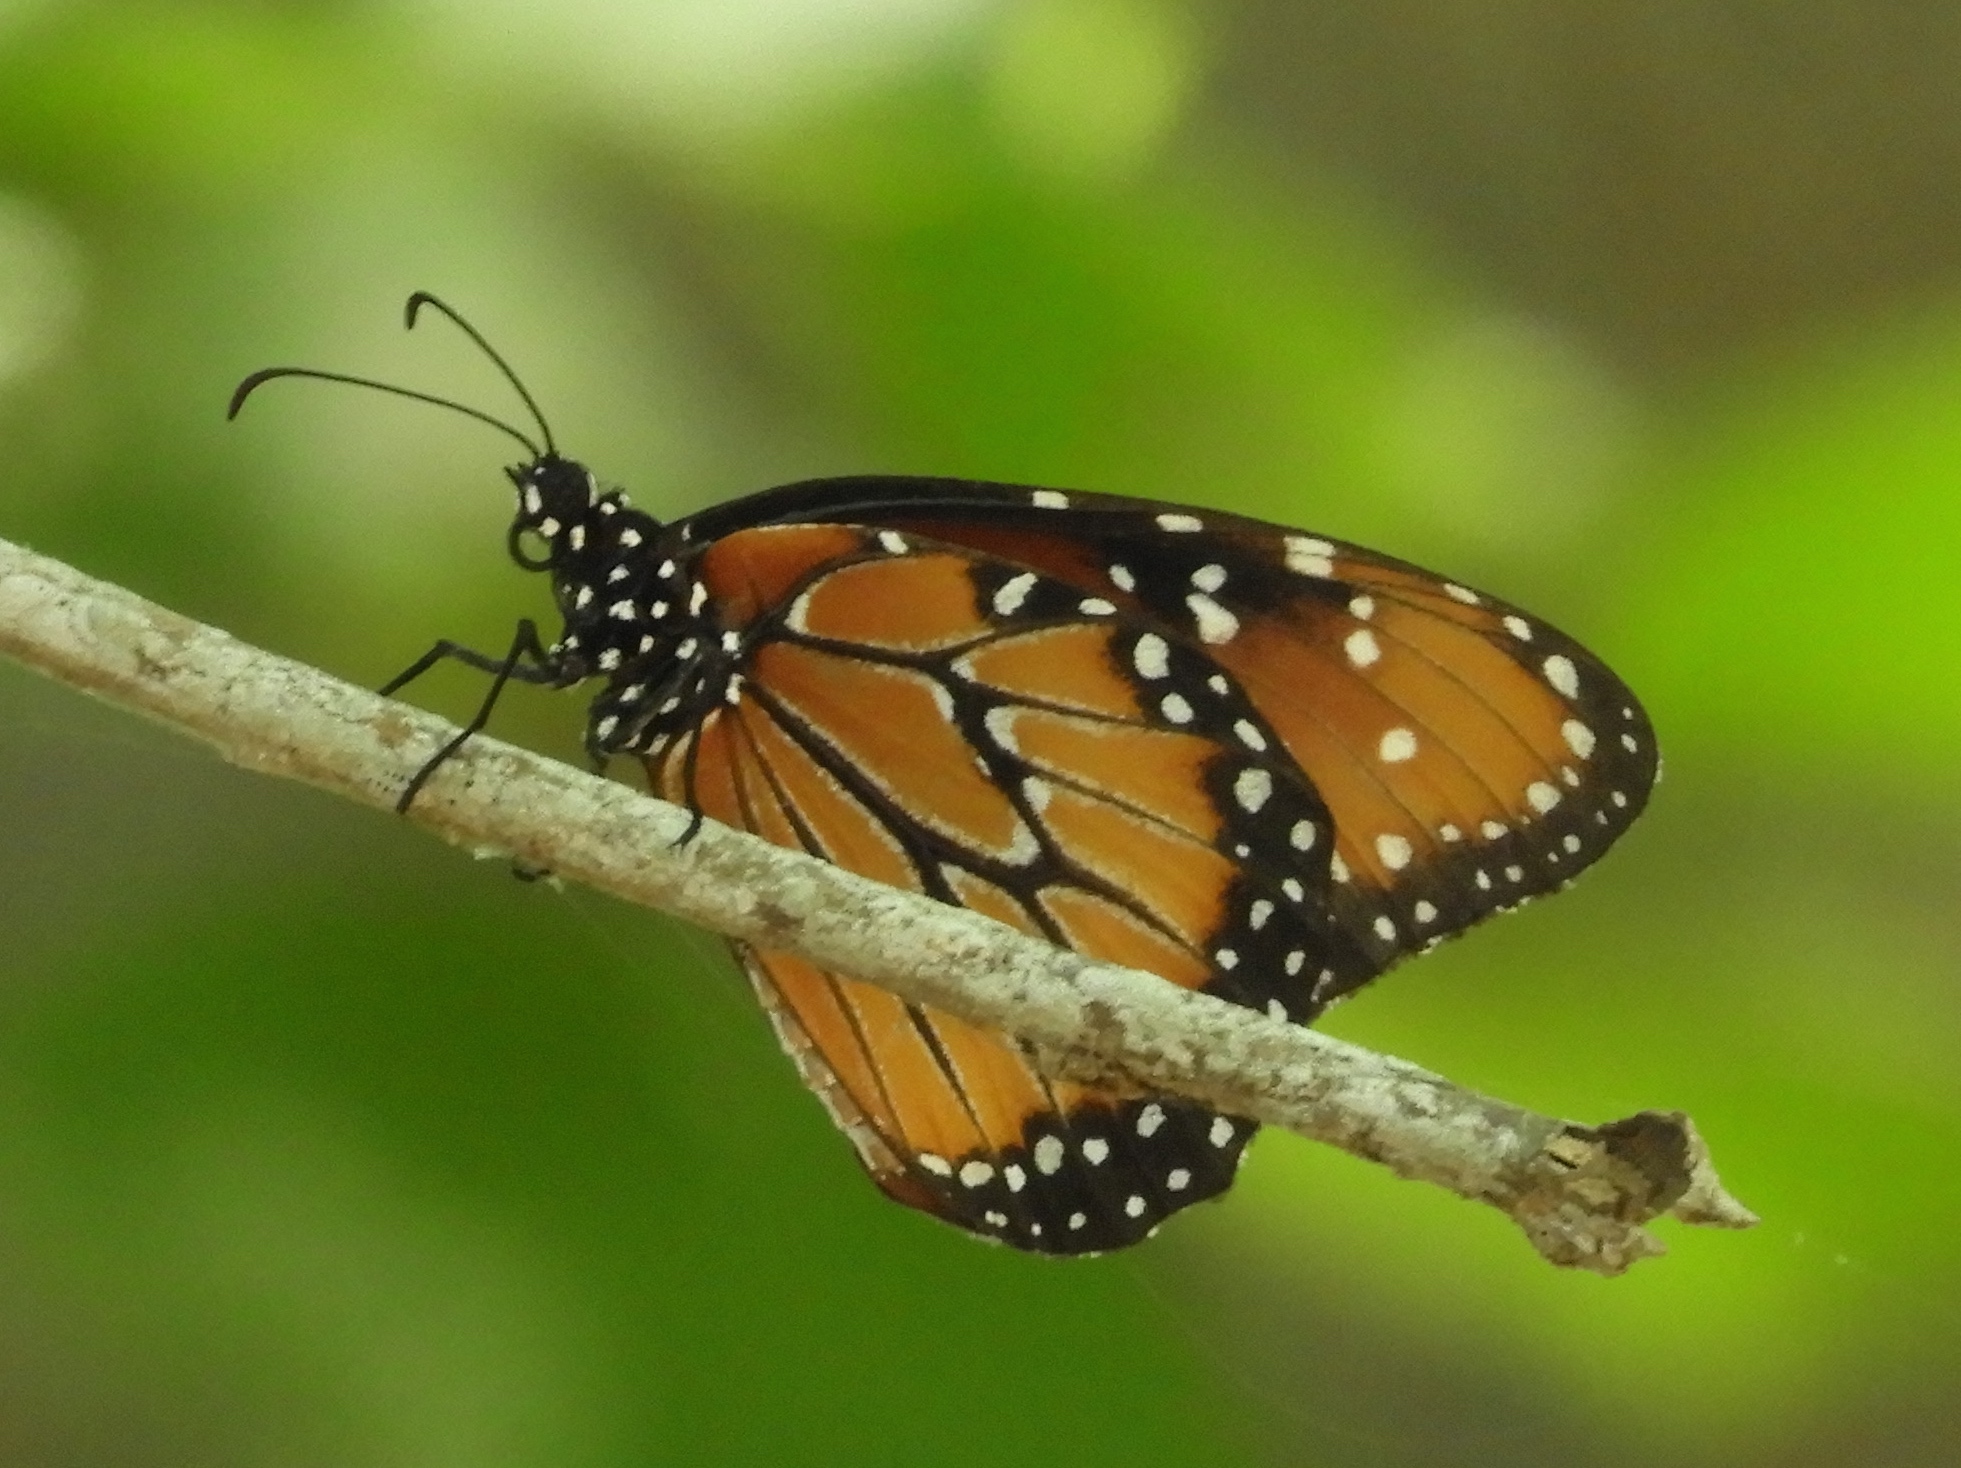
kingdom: Animalia
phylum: Arthropoda
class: Insecta
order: Lepidoptera
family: Nymphalidae
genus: Danaus
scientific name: Danaus gilippus
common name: Queen
